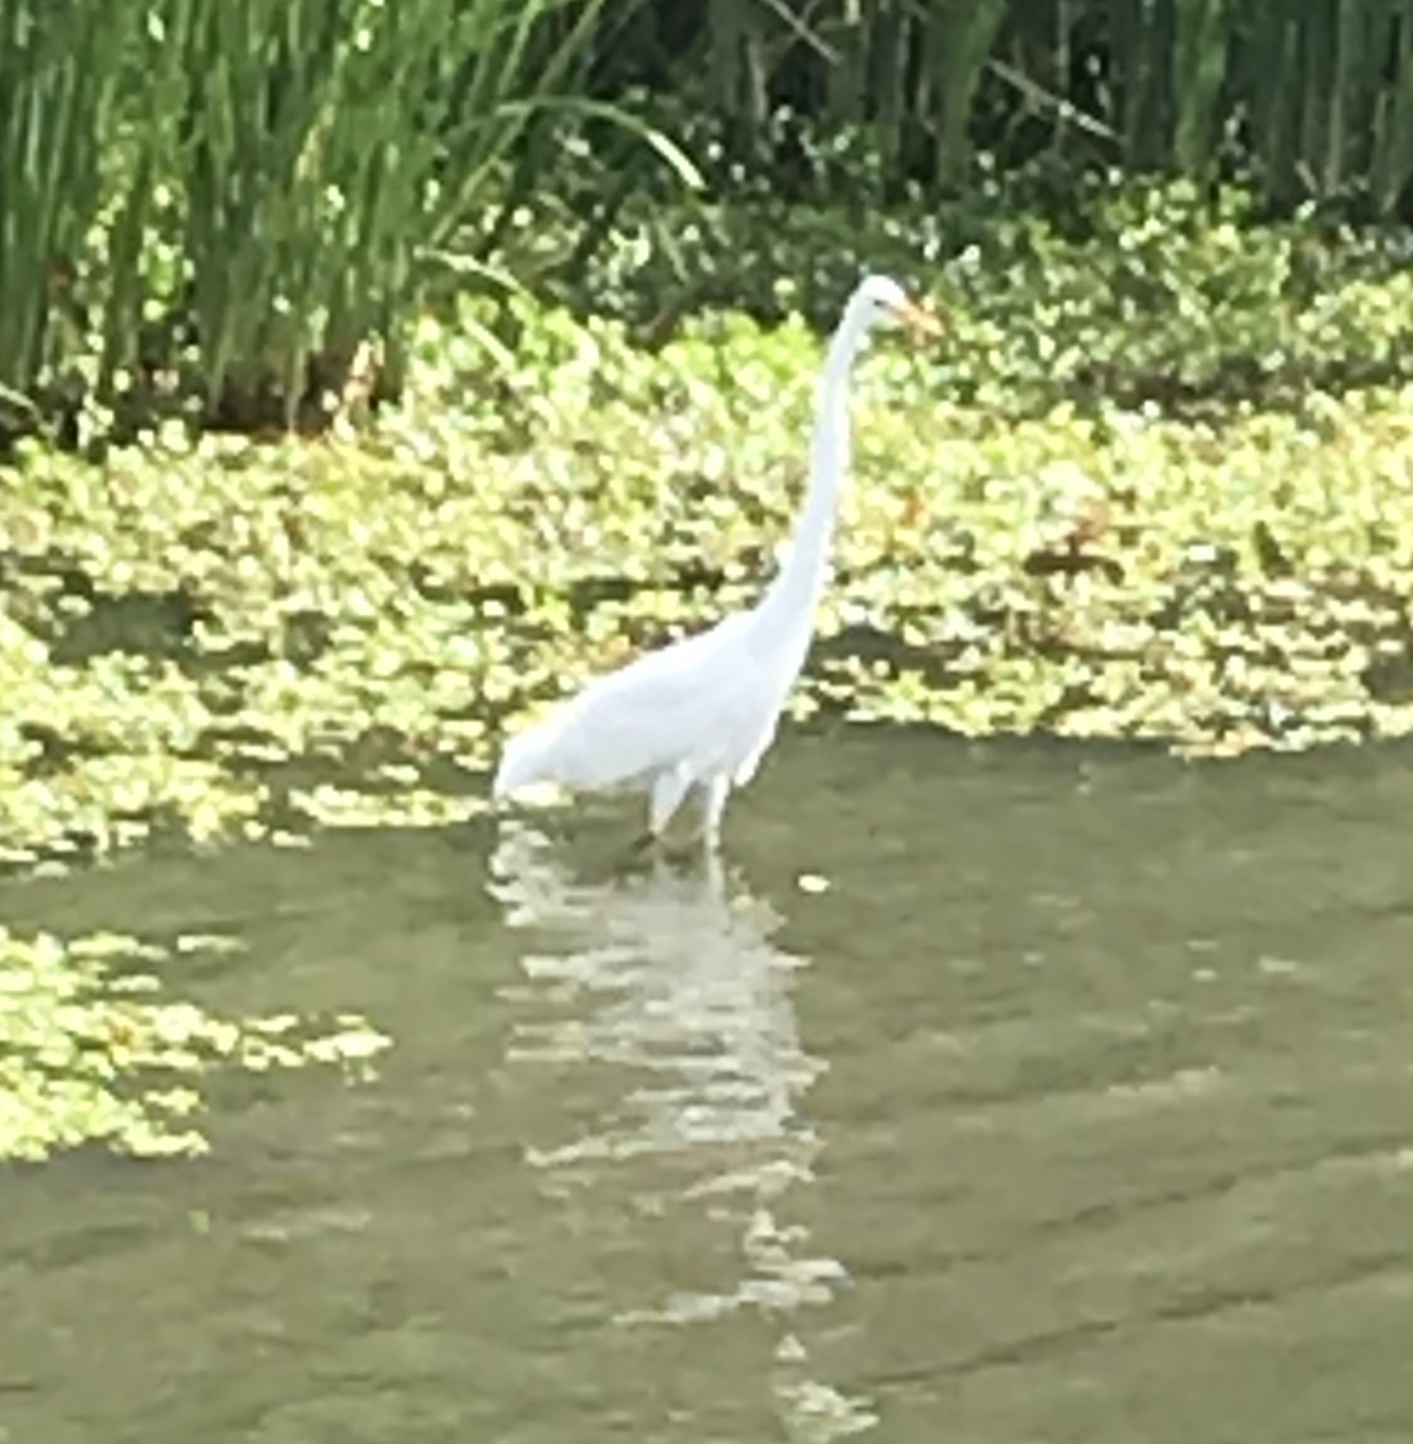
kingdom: Animalia
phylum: Chordata
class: Aves
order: Pelecaniformes
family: Ardeidae
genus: Ardea
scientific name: Ardea alba
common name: Great egret
